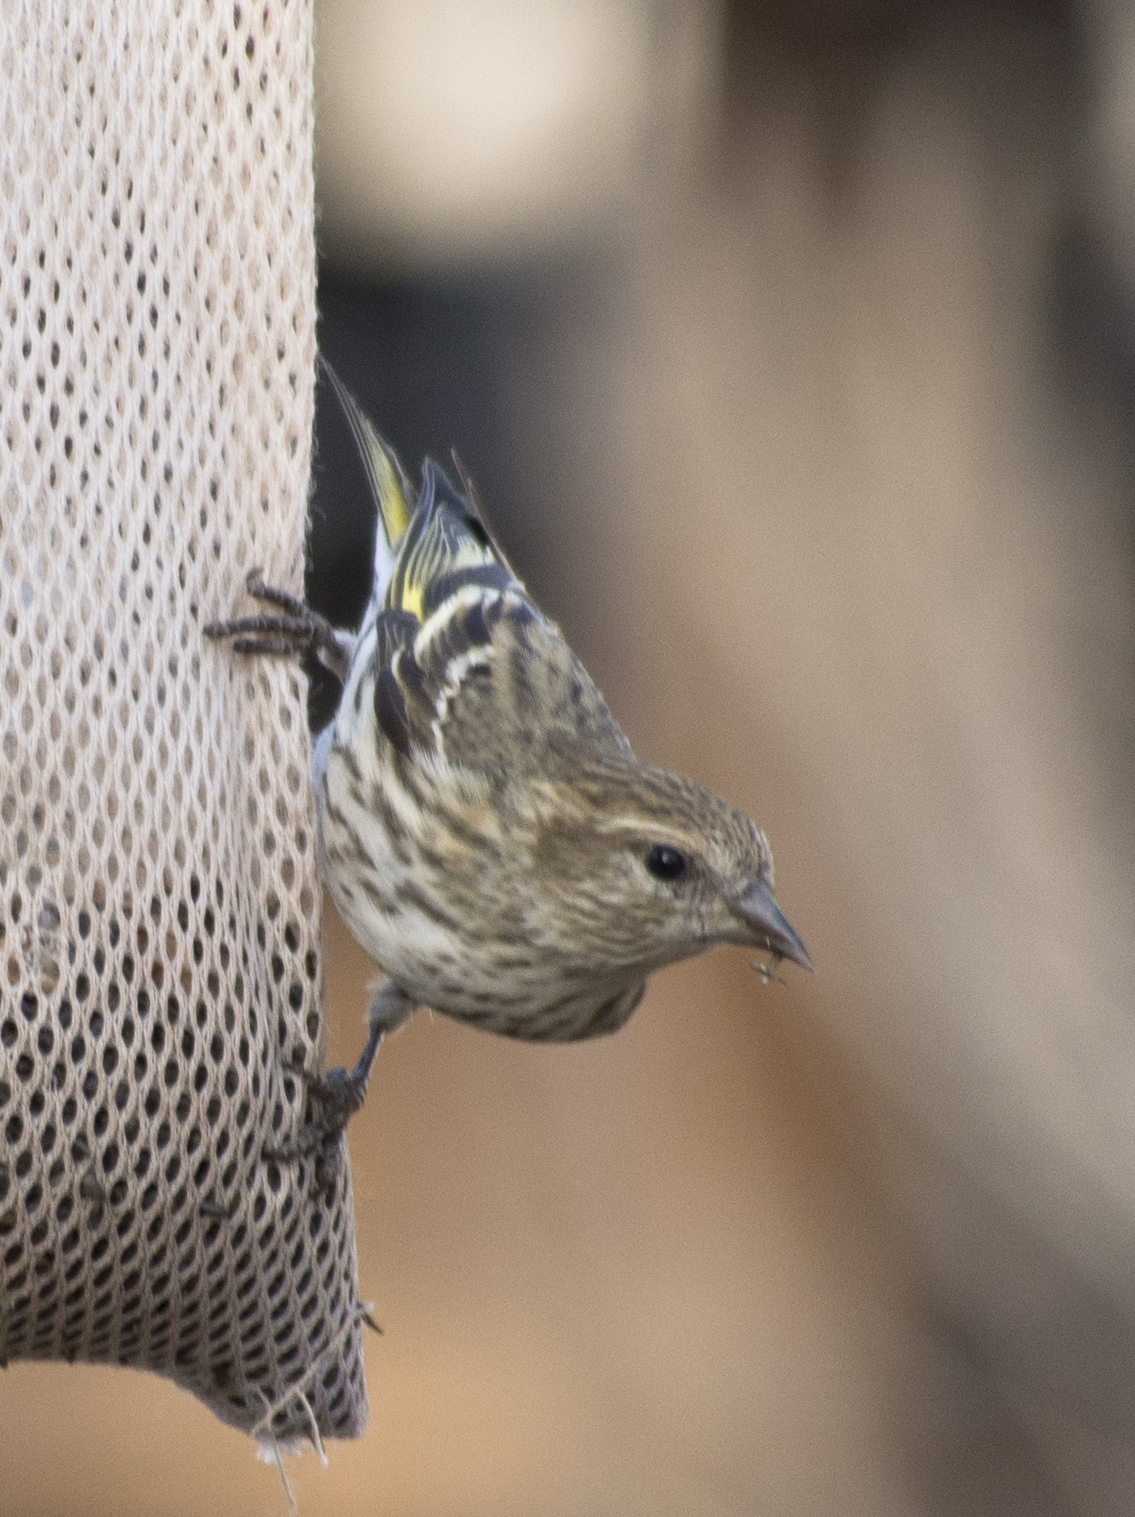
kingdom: Animalia
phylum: Chordata
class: Aves
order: Passeriformes
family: Fringillidae
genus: Spinus
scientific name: Spinus pinus
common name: Pine siskin
